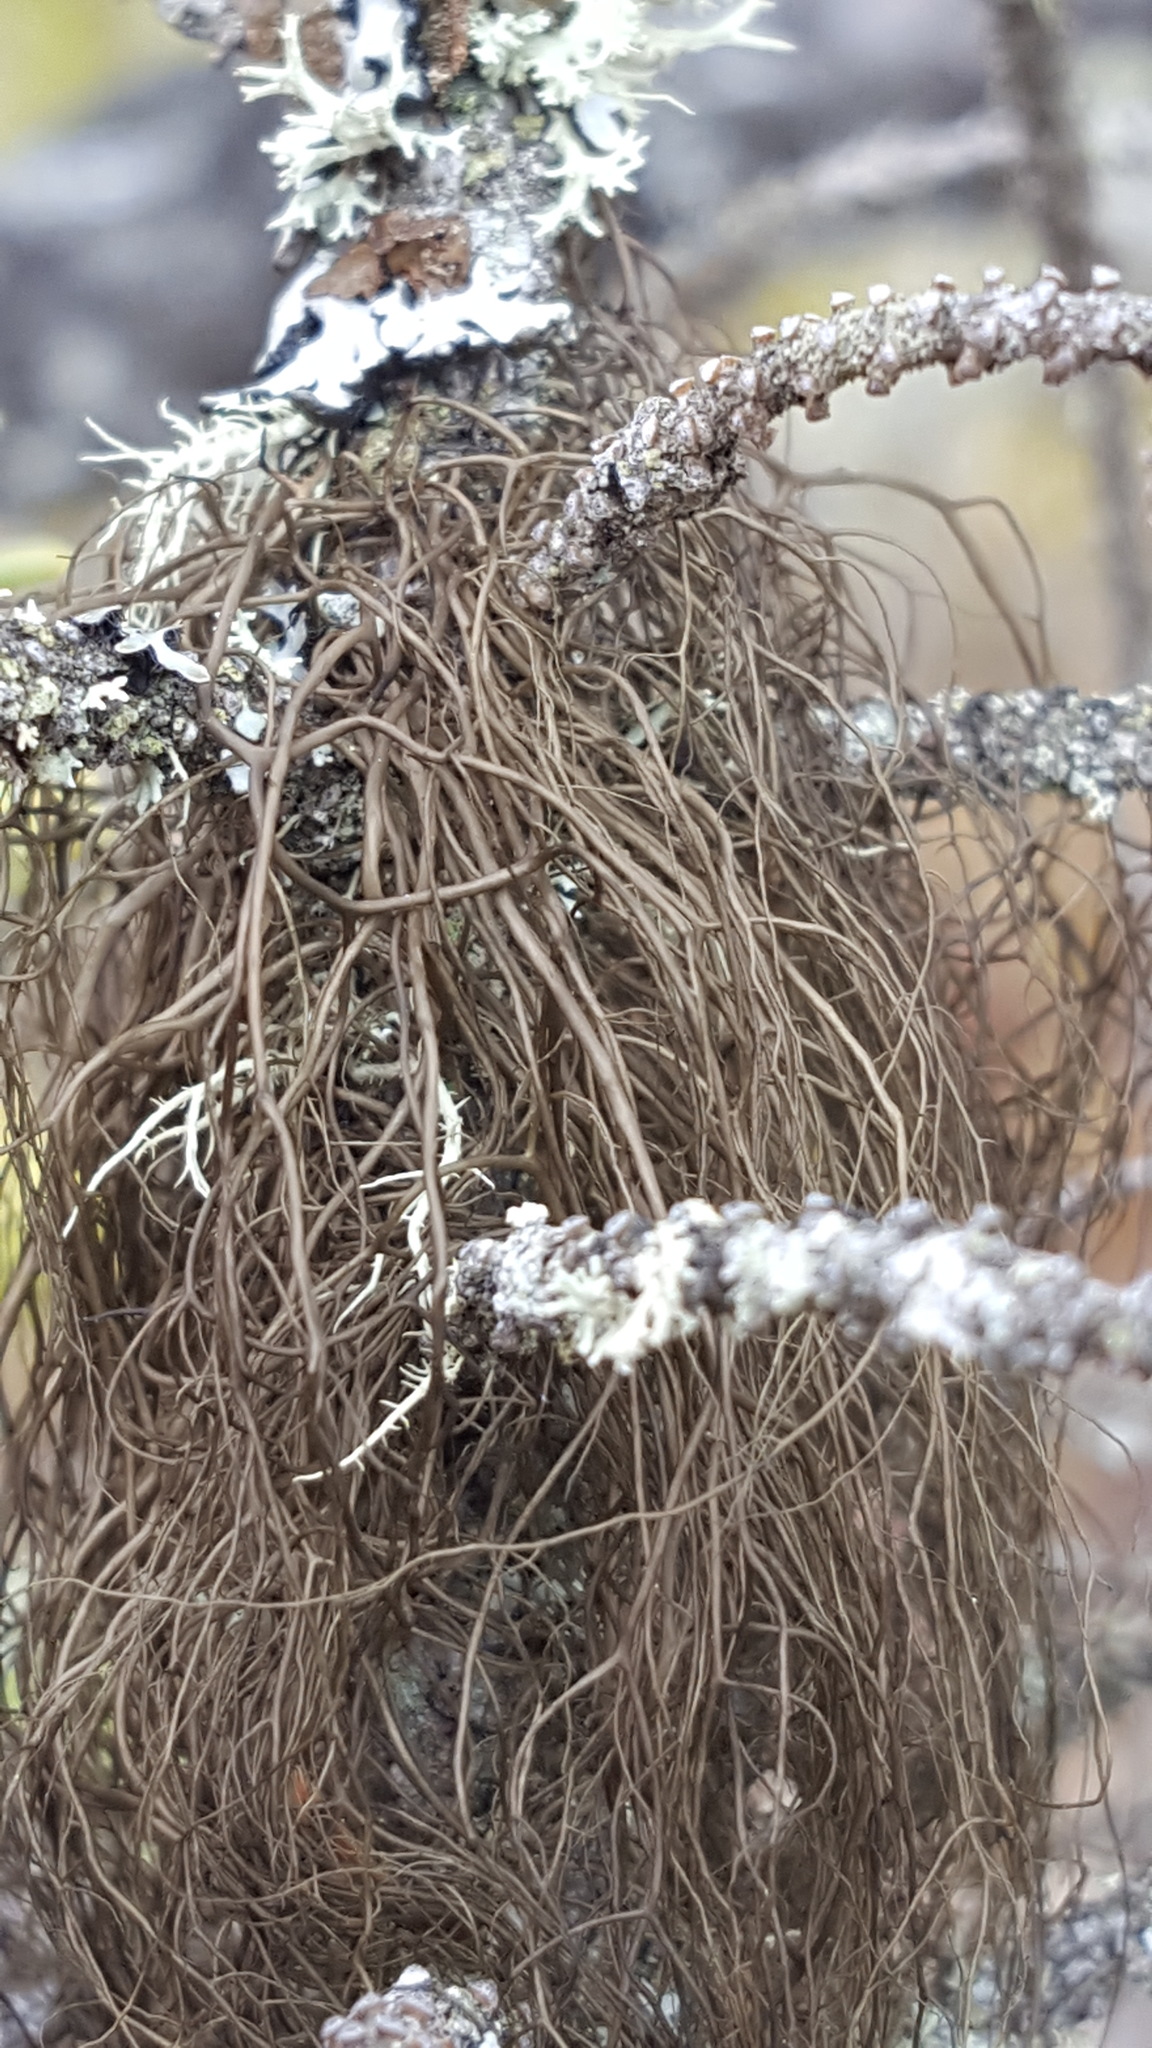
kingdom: Fungi
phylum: Ascomycota
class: Lecanoromycetes
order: Lecanorales
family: Parmeliaceae
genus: Bryoria
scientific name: Bryoria trichodes
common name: Inelegant horsehair lichen
